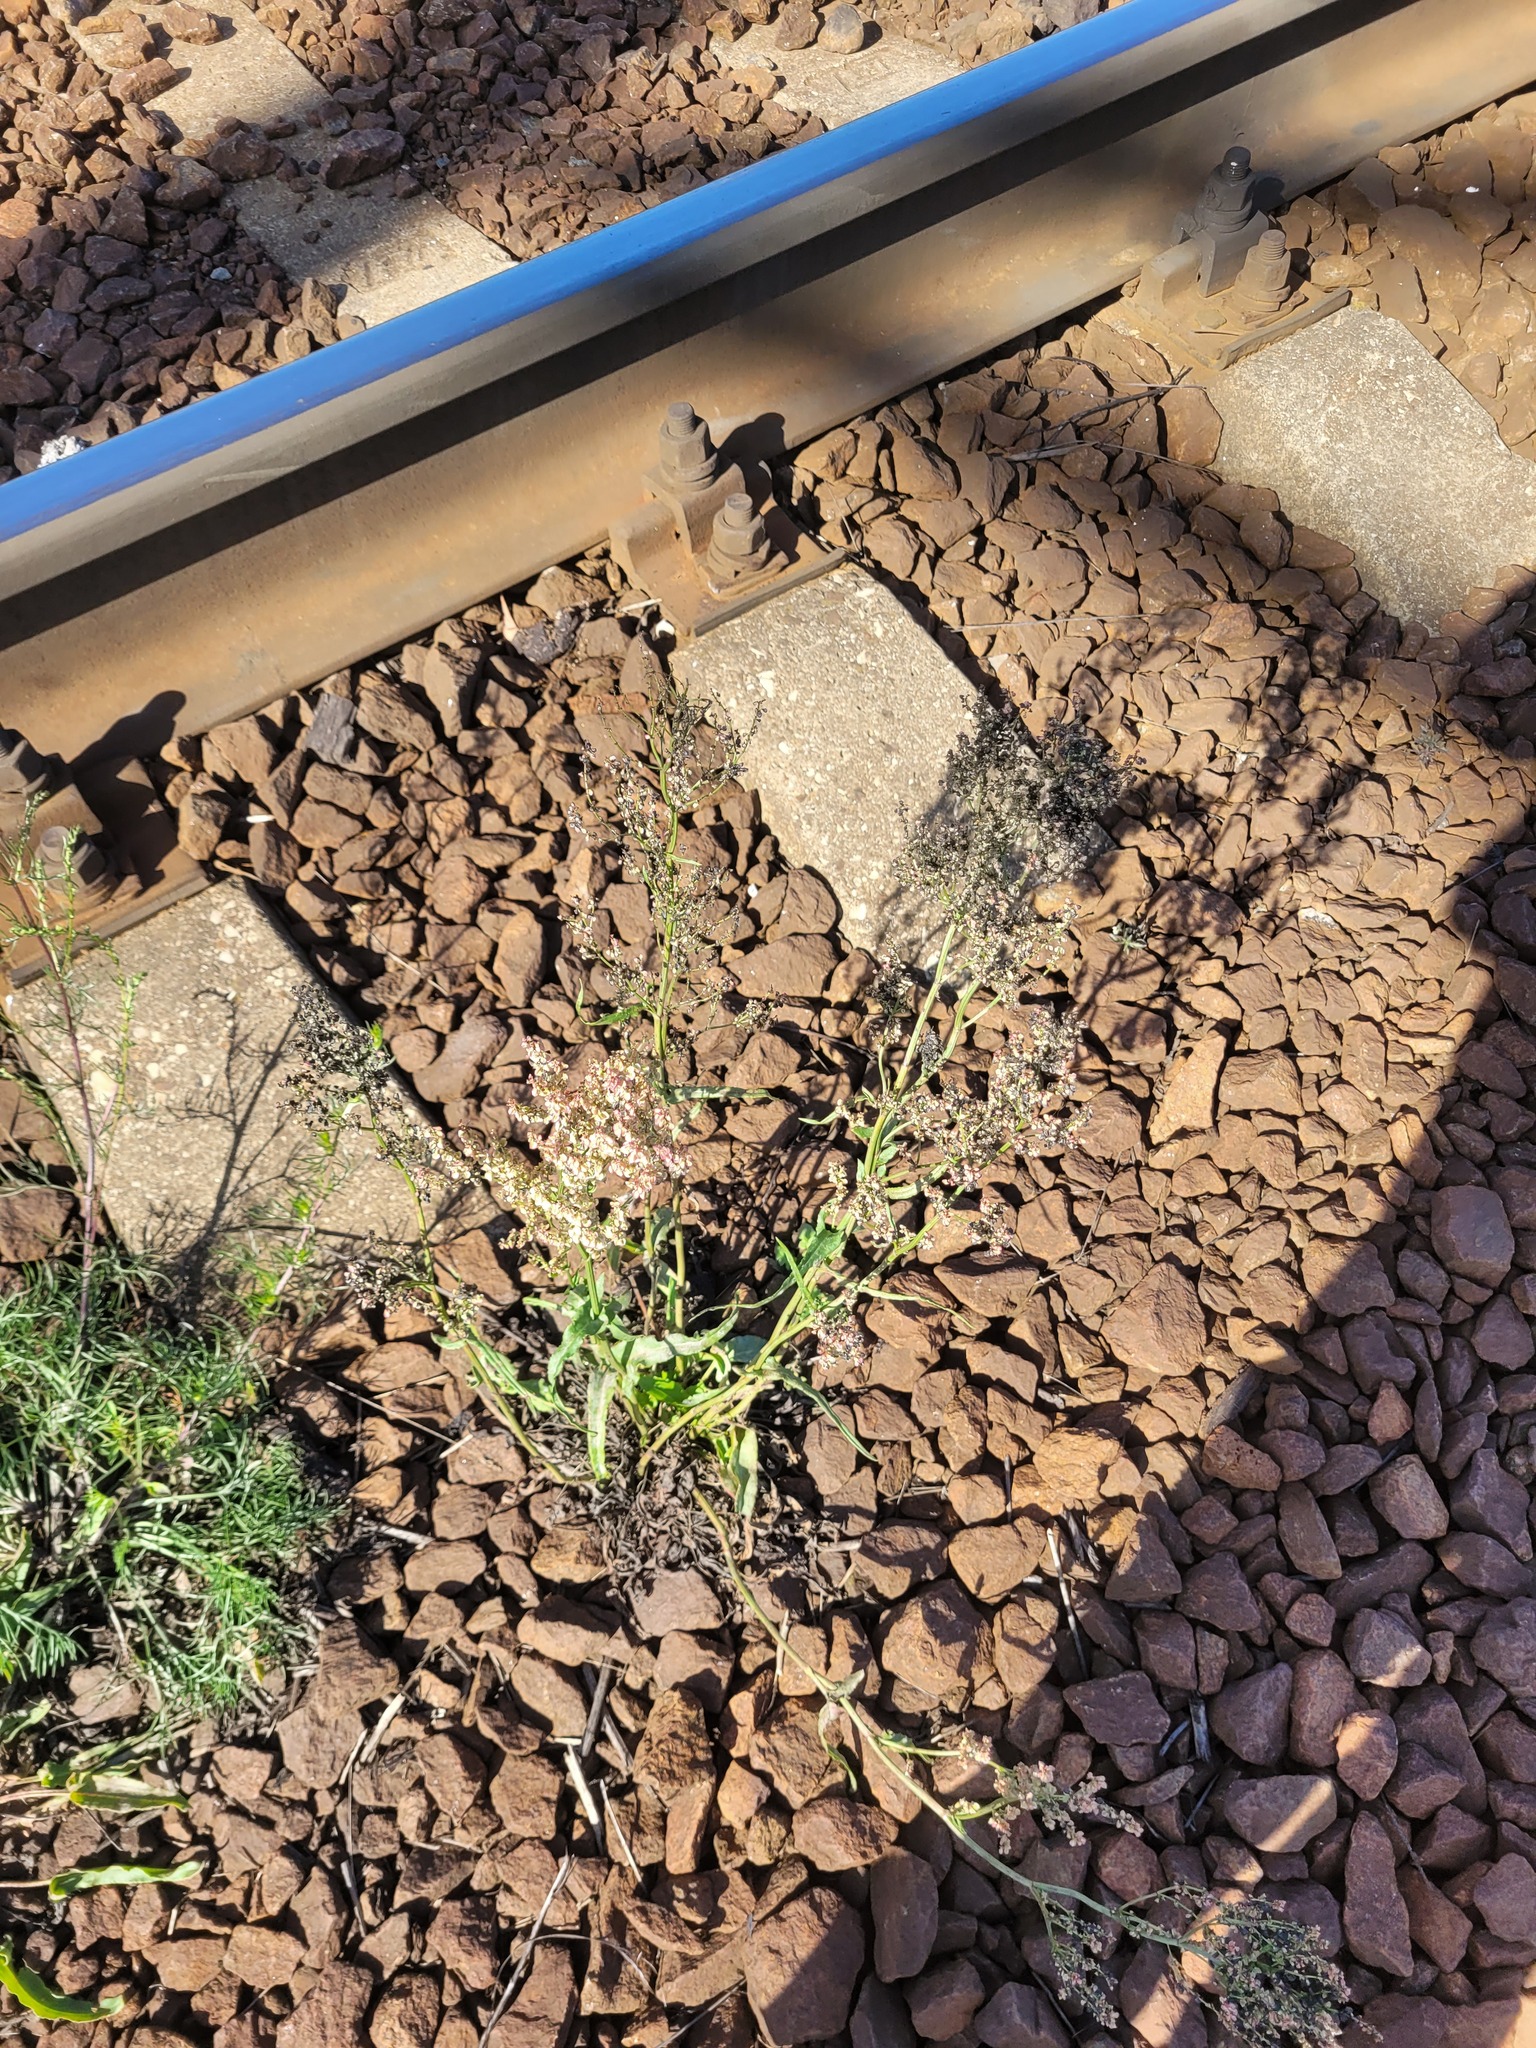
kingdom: Plantae
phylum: Tracheophyta
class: Magnoliopsida
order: Caryophyllales
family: Polygonaceae
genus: Rumex
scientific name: Rumex thyrsiflorus
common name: Garden sorrel
